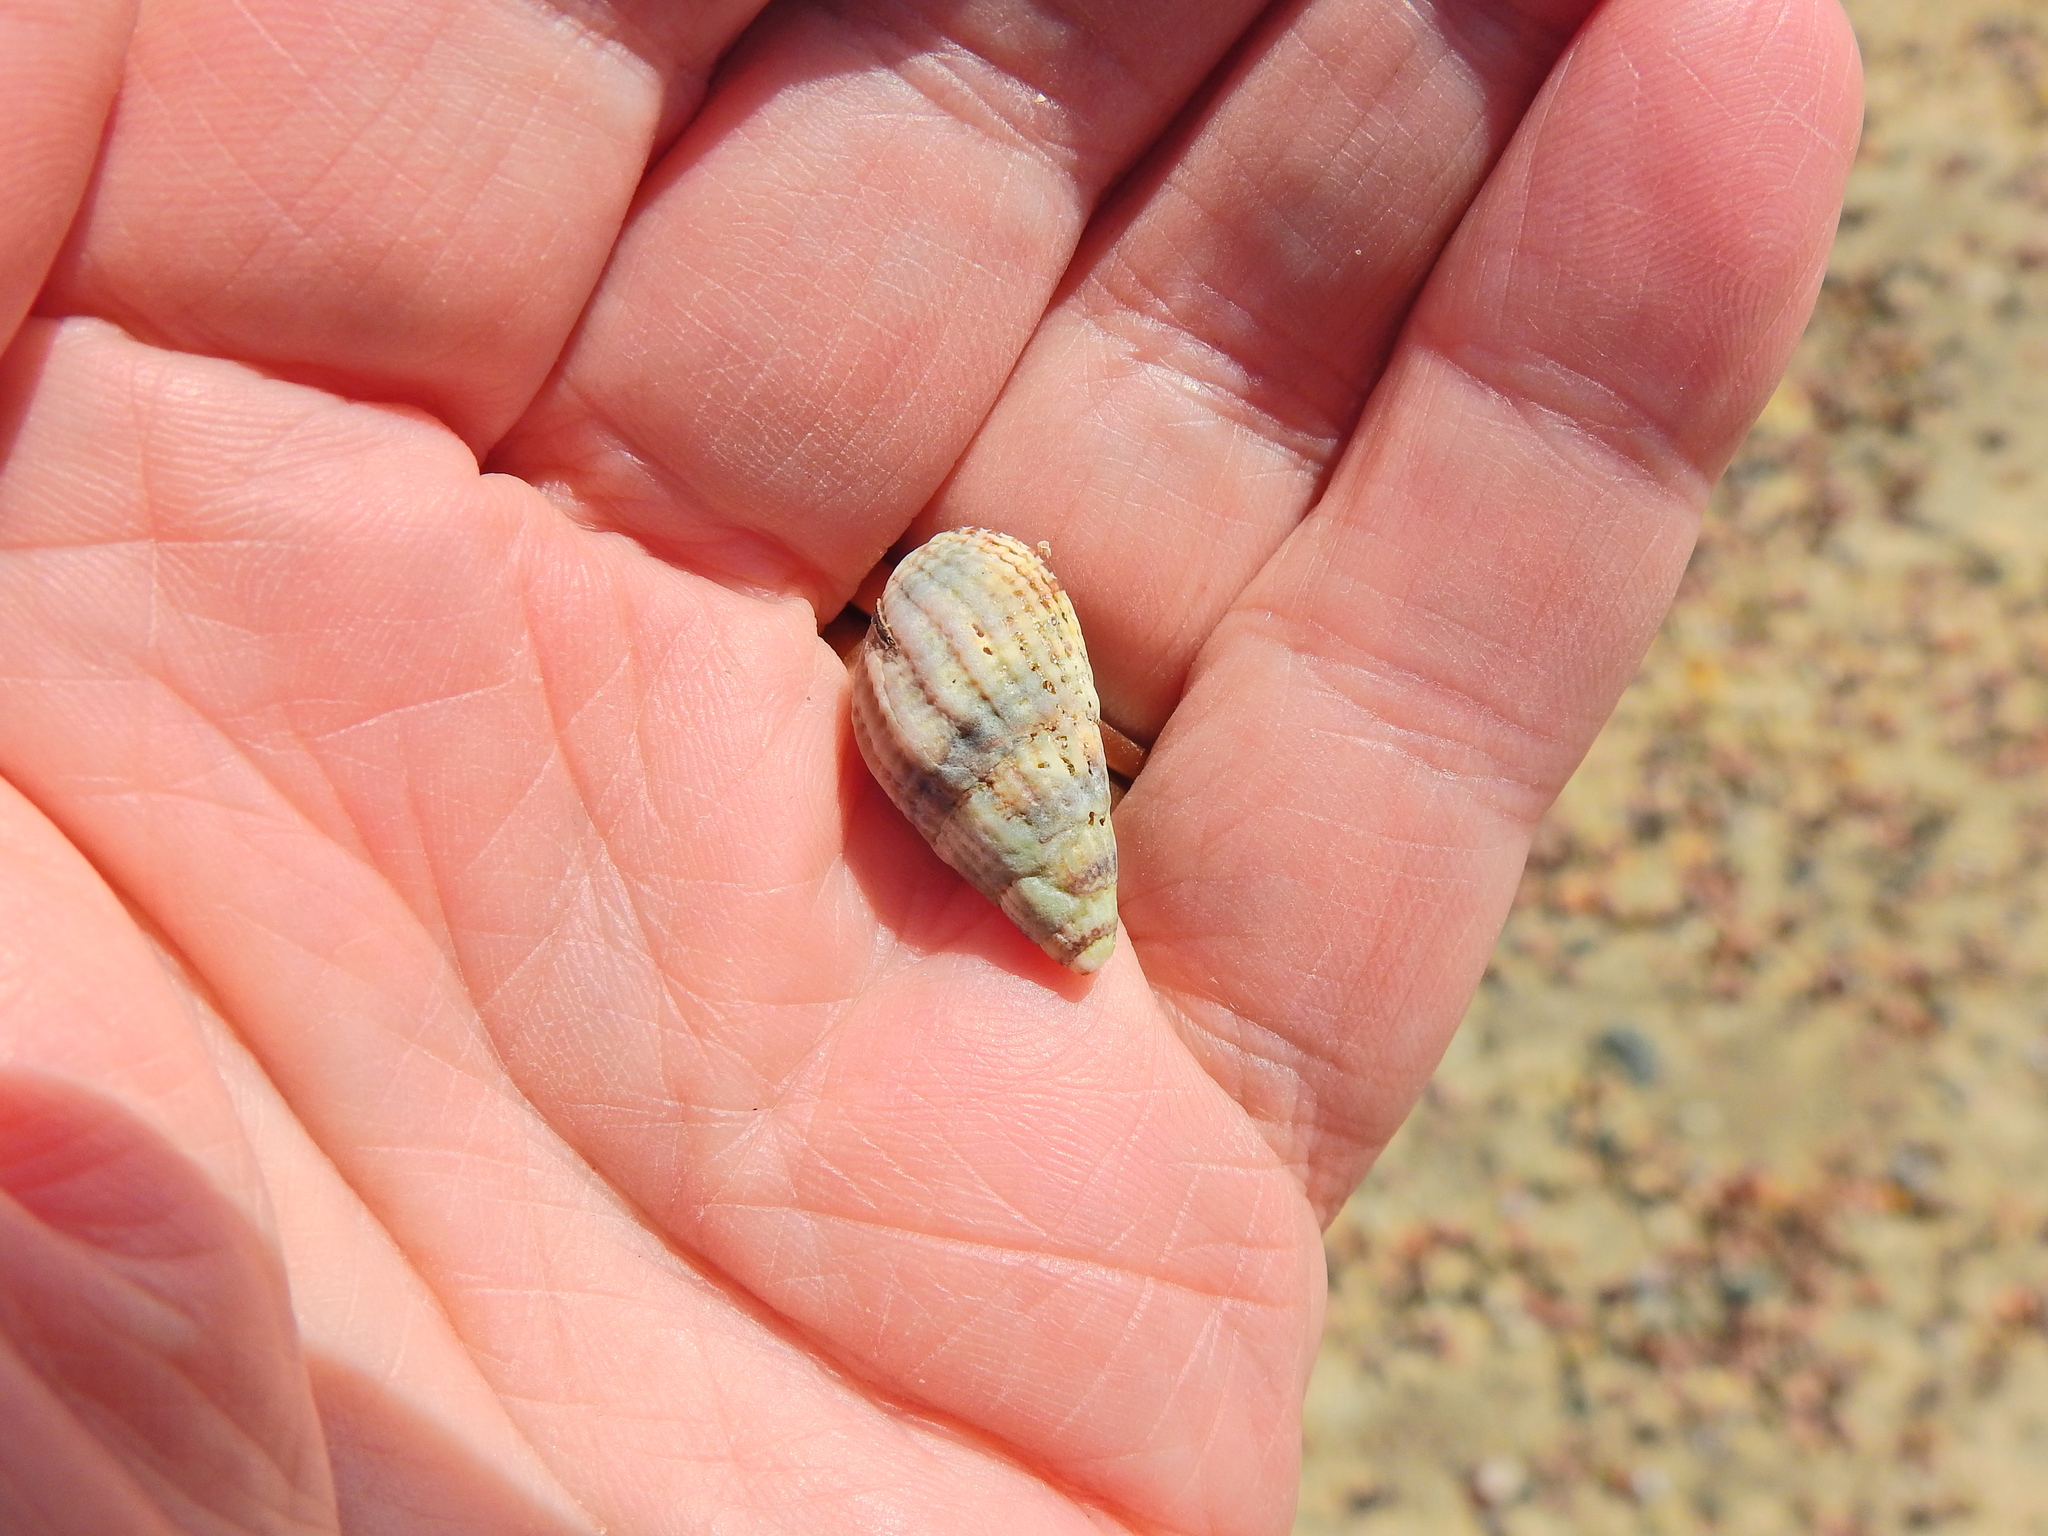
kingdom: Animalia
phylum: Mollusca
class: Gastropoda
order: Neogastropoda
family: Nassariidae
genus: Tritia
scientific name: Tritia reticulata
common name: Netted dog whelk
